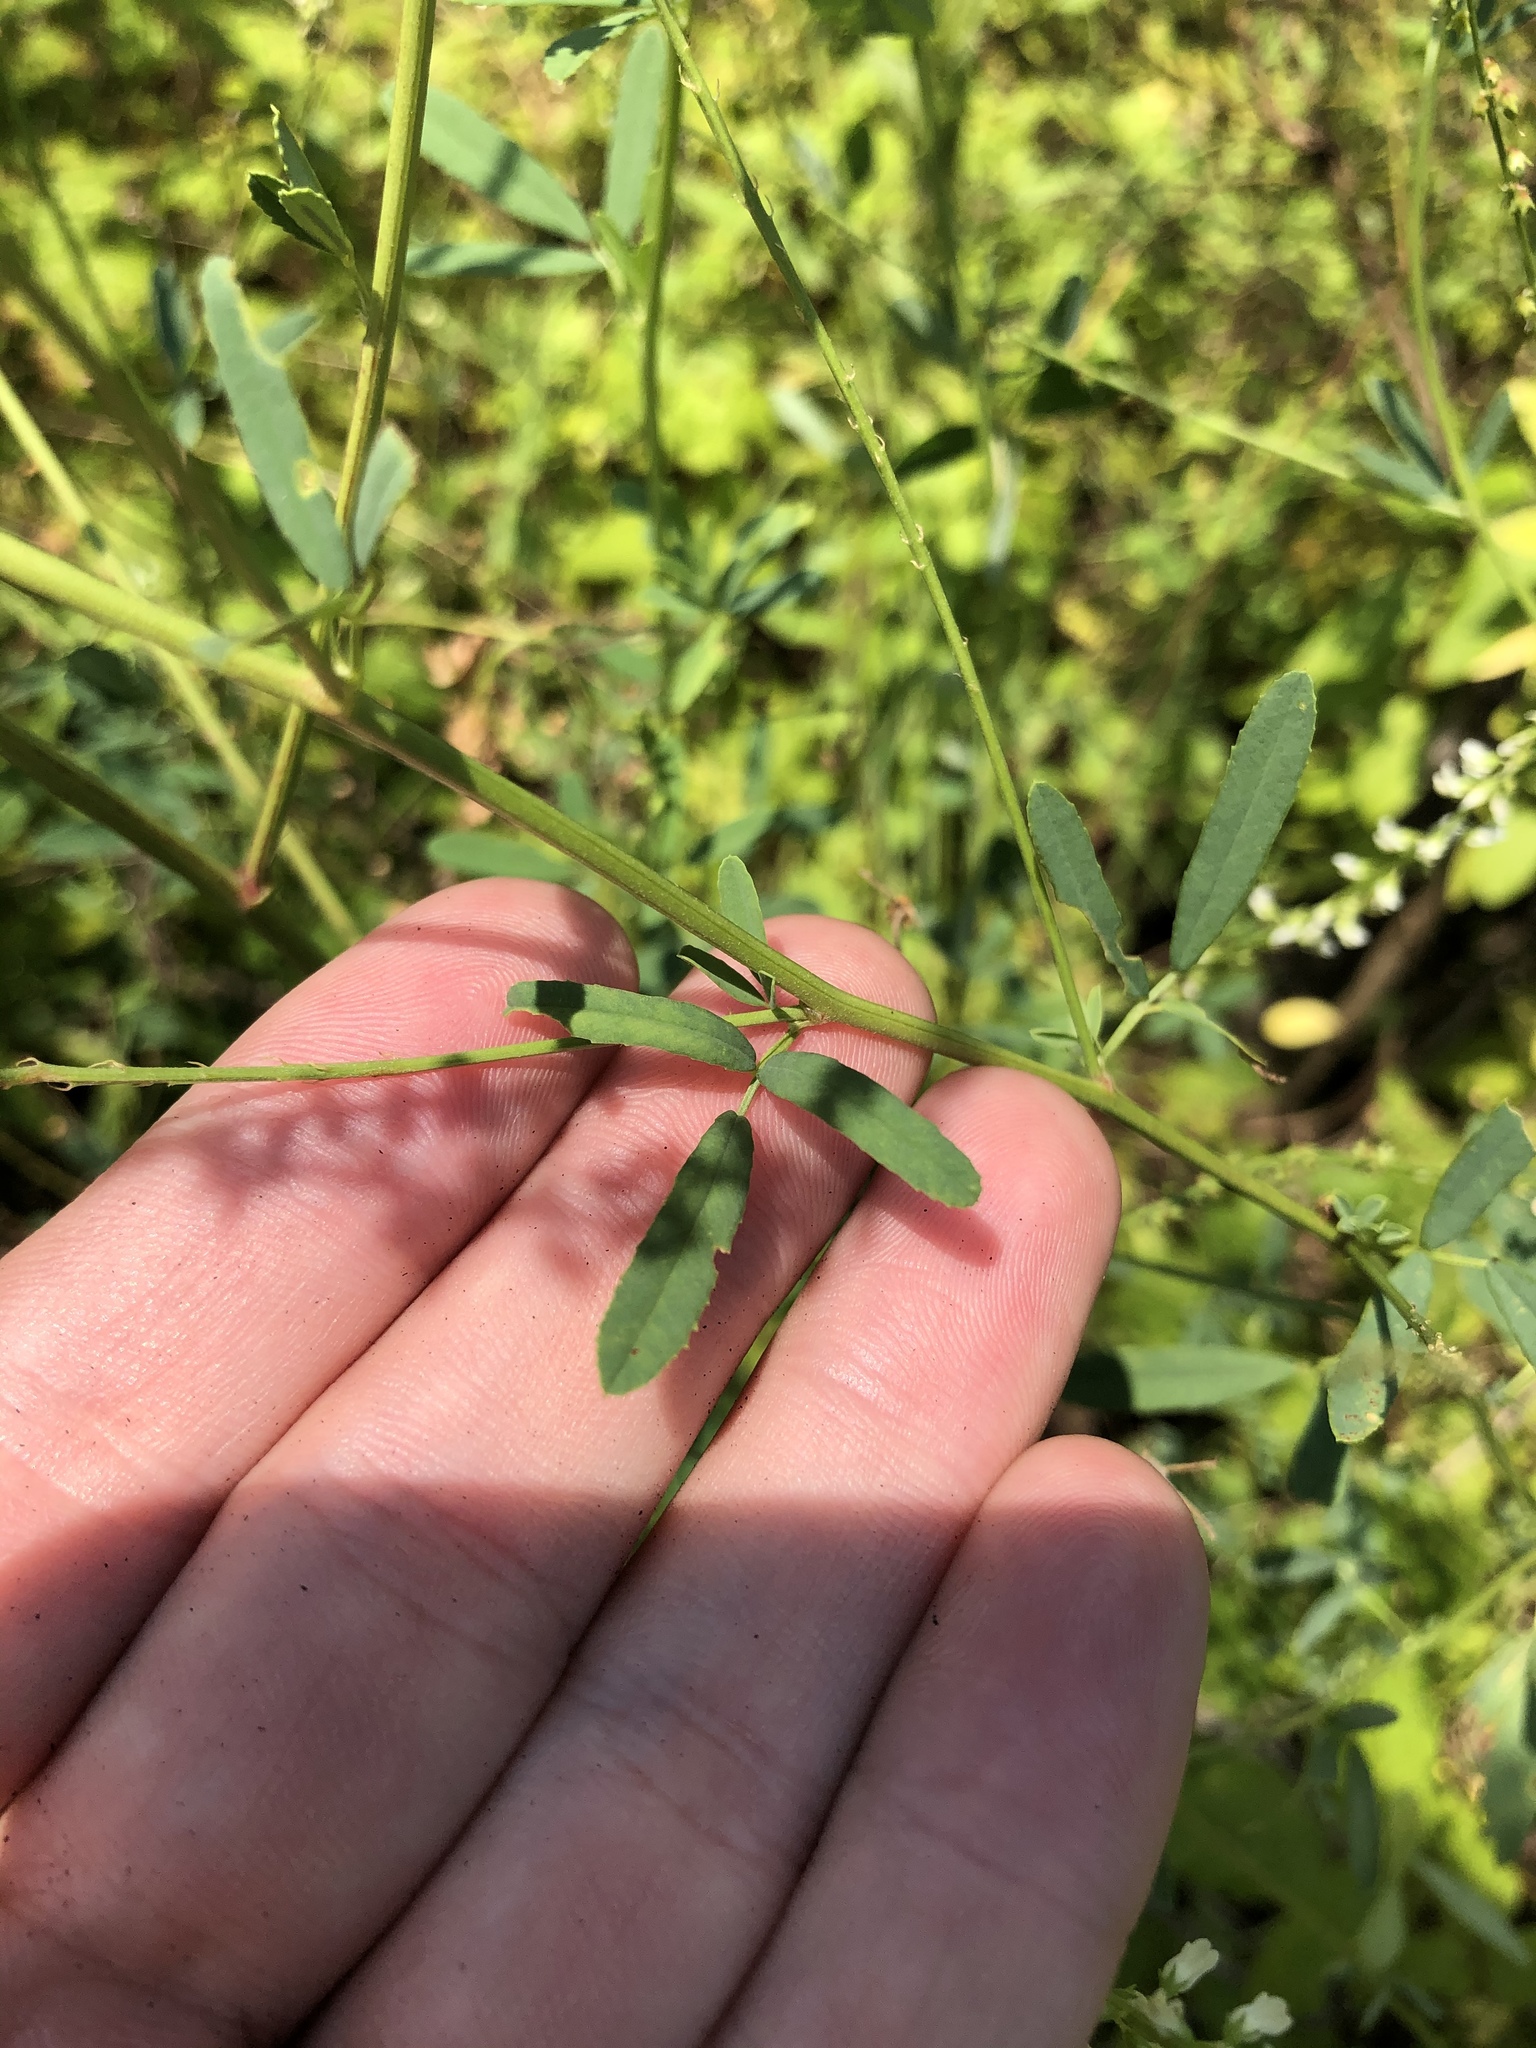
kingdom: Plantae
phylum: Tracheophyta
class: Magnoliopsida
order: Fabales
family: Fabaceae
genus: Melilotus
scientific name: Melilotus albus
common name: White melilot
